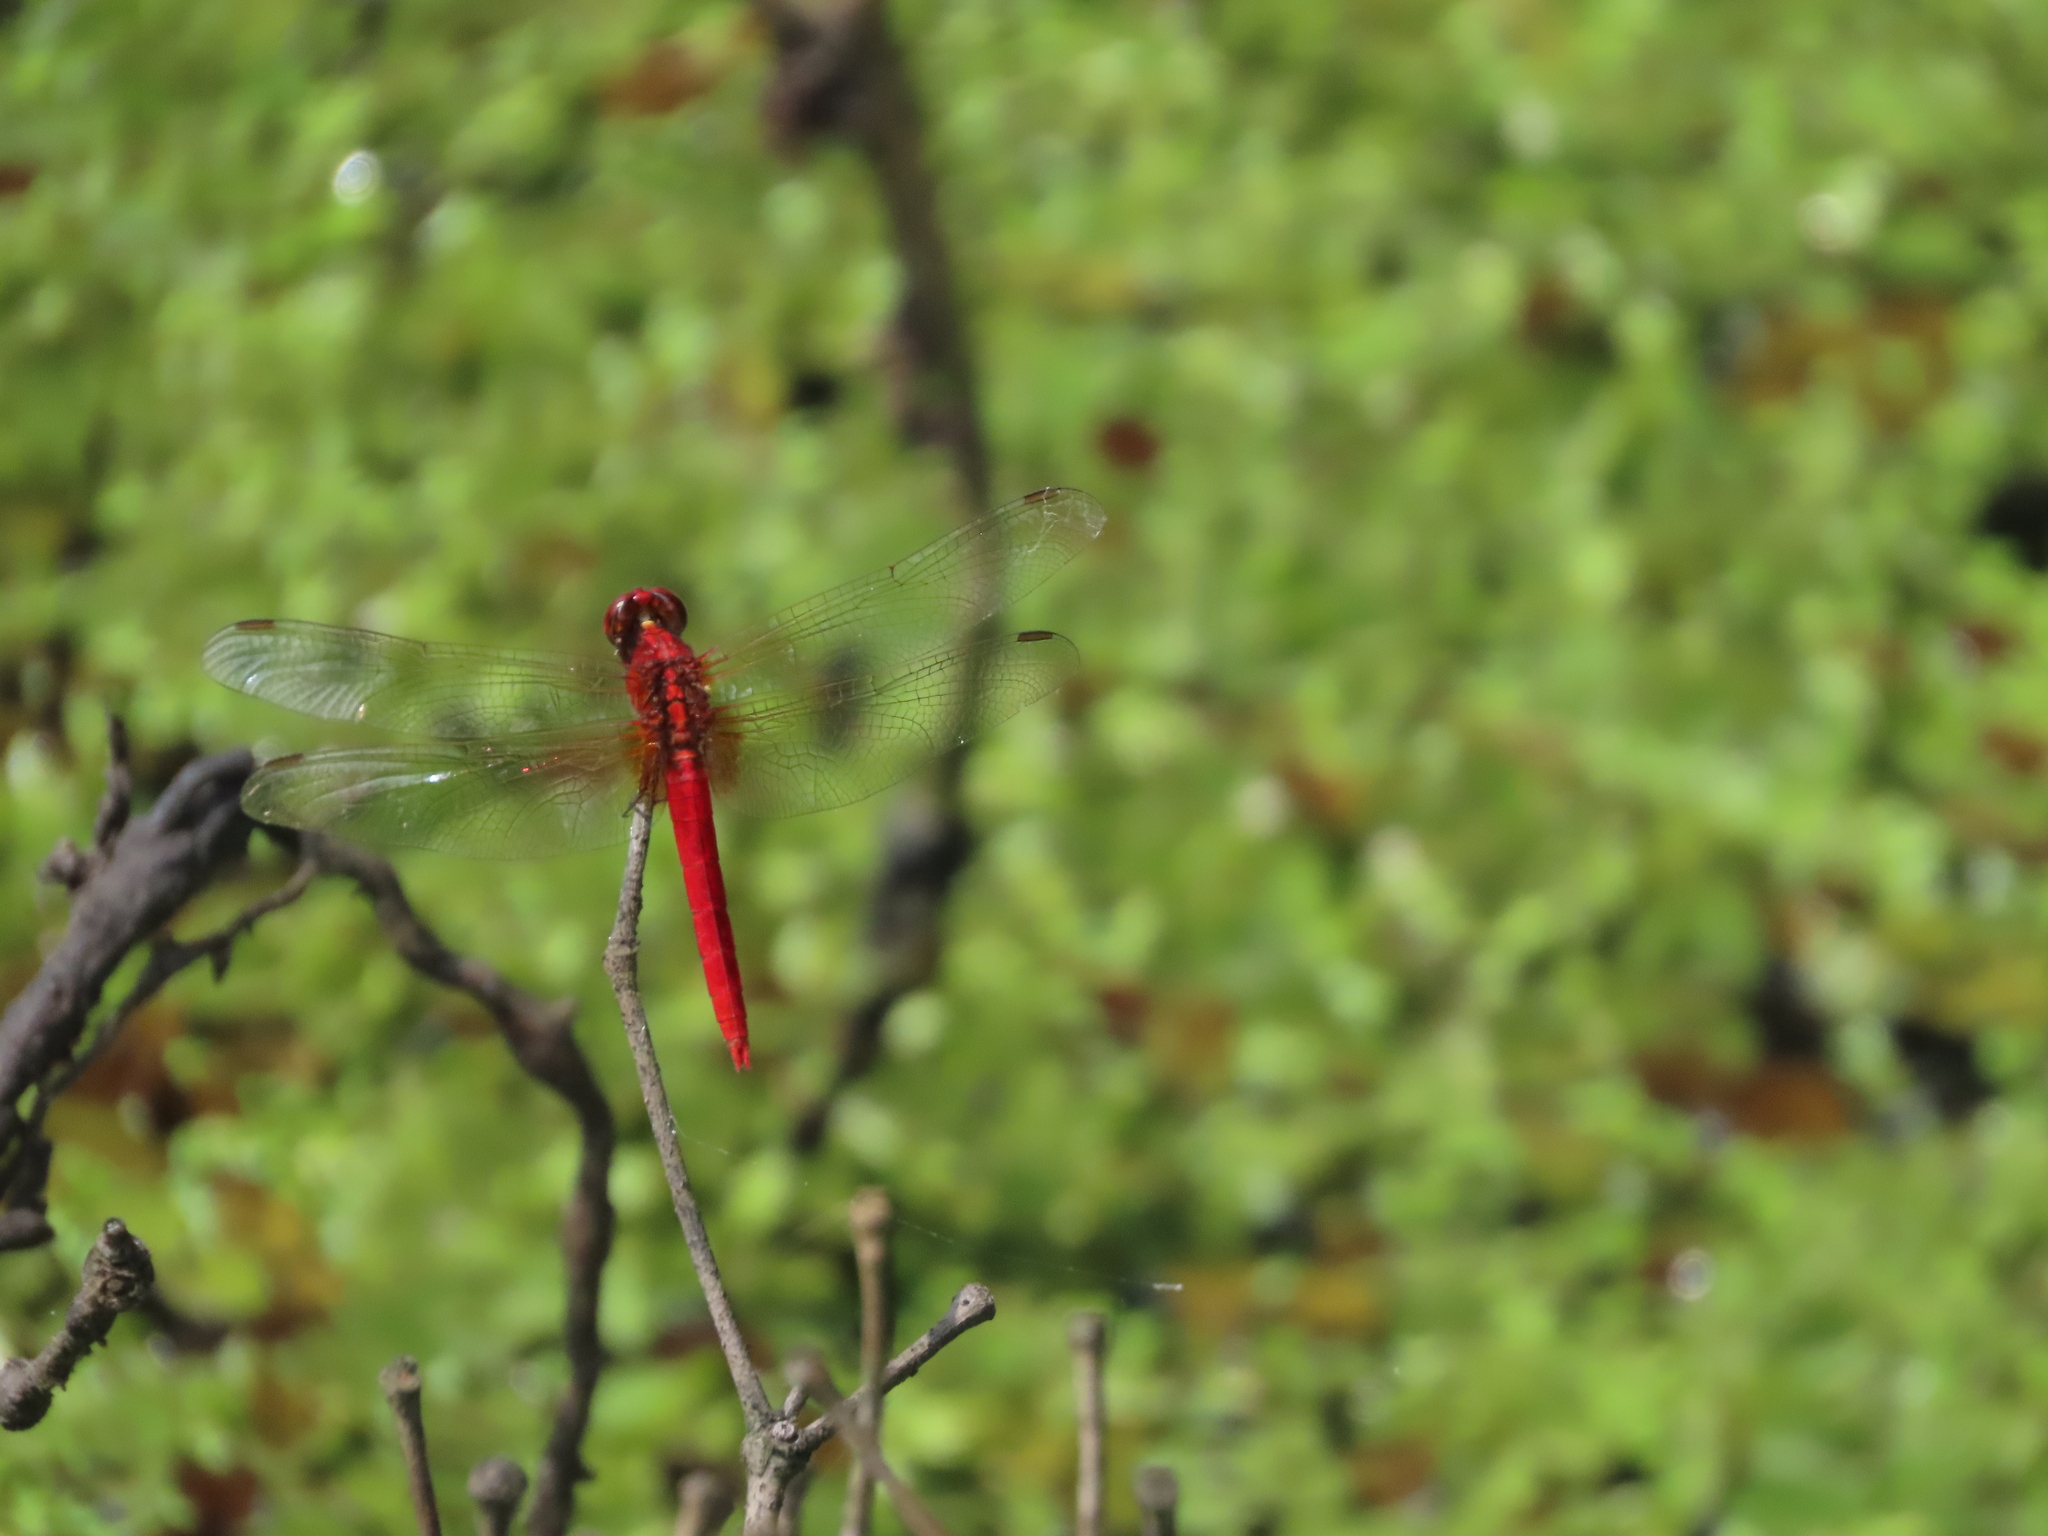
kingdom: Animalia
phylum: Arthropoda
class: Insecta
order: Odonata
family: Libellulidae
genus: Rhodothemis
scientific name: Rhodothemis rufa
